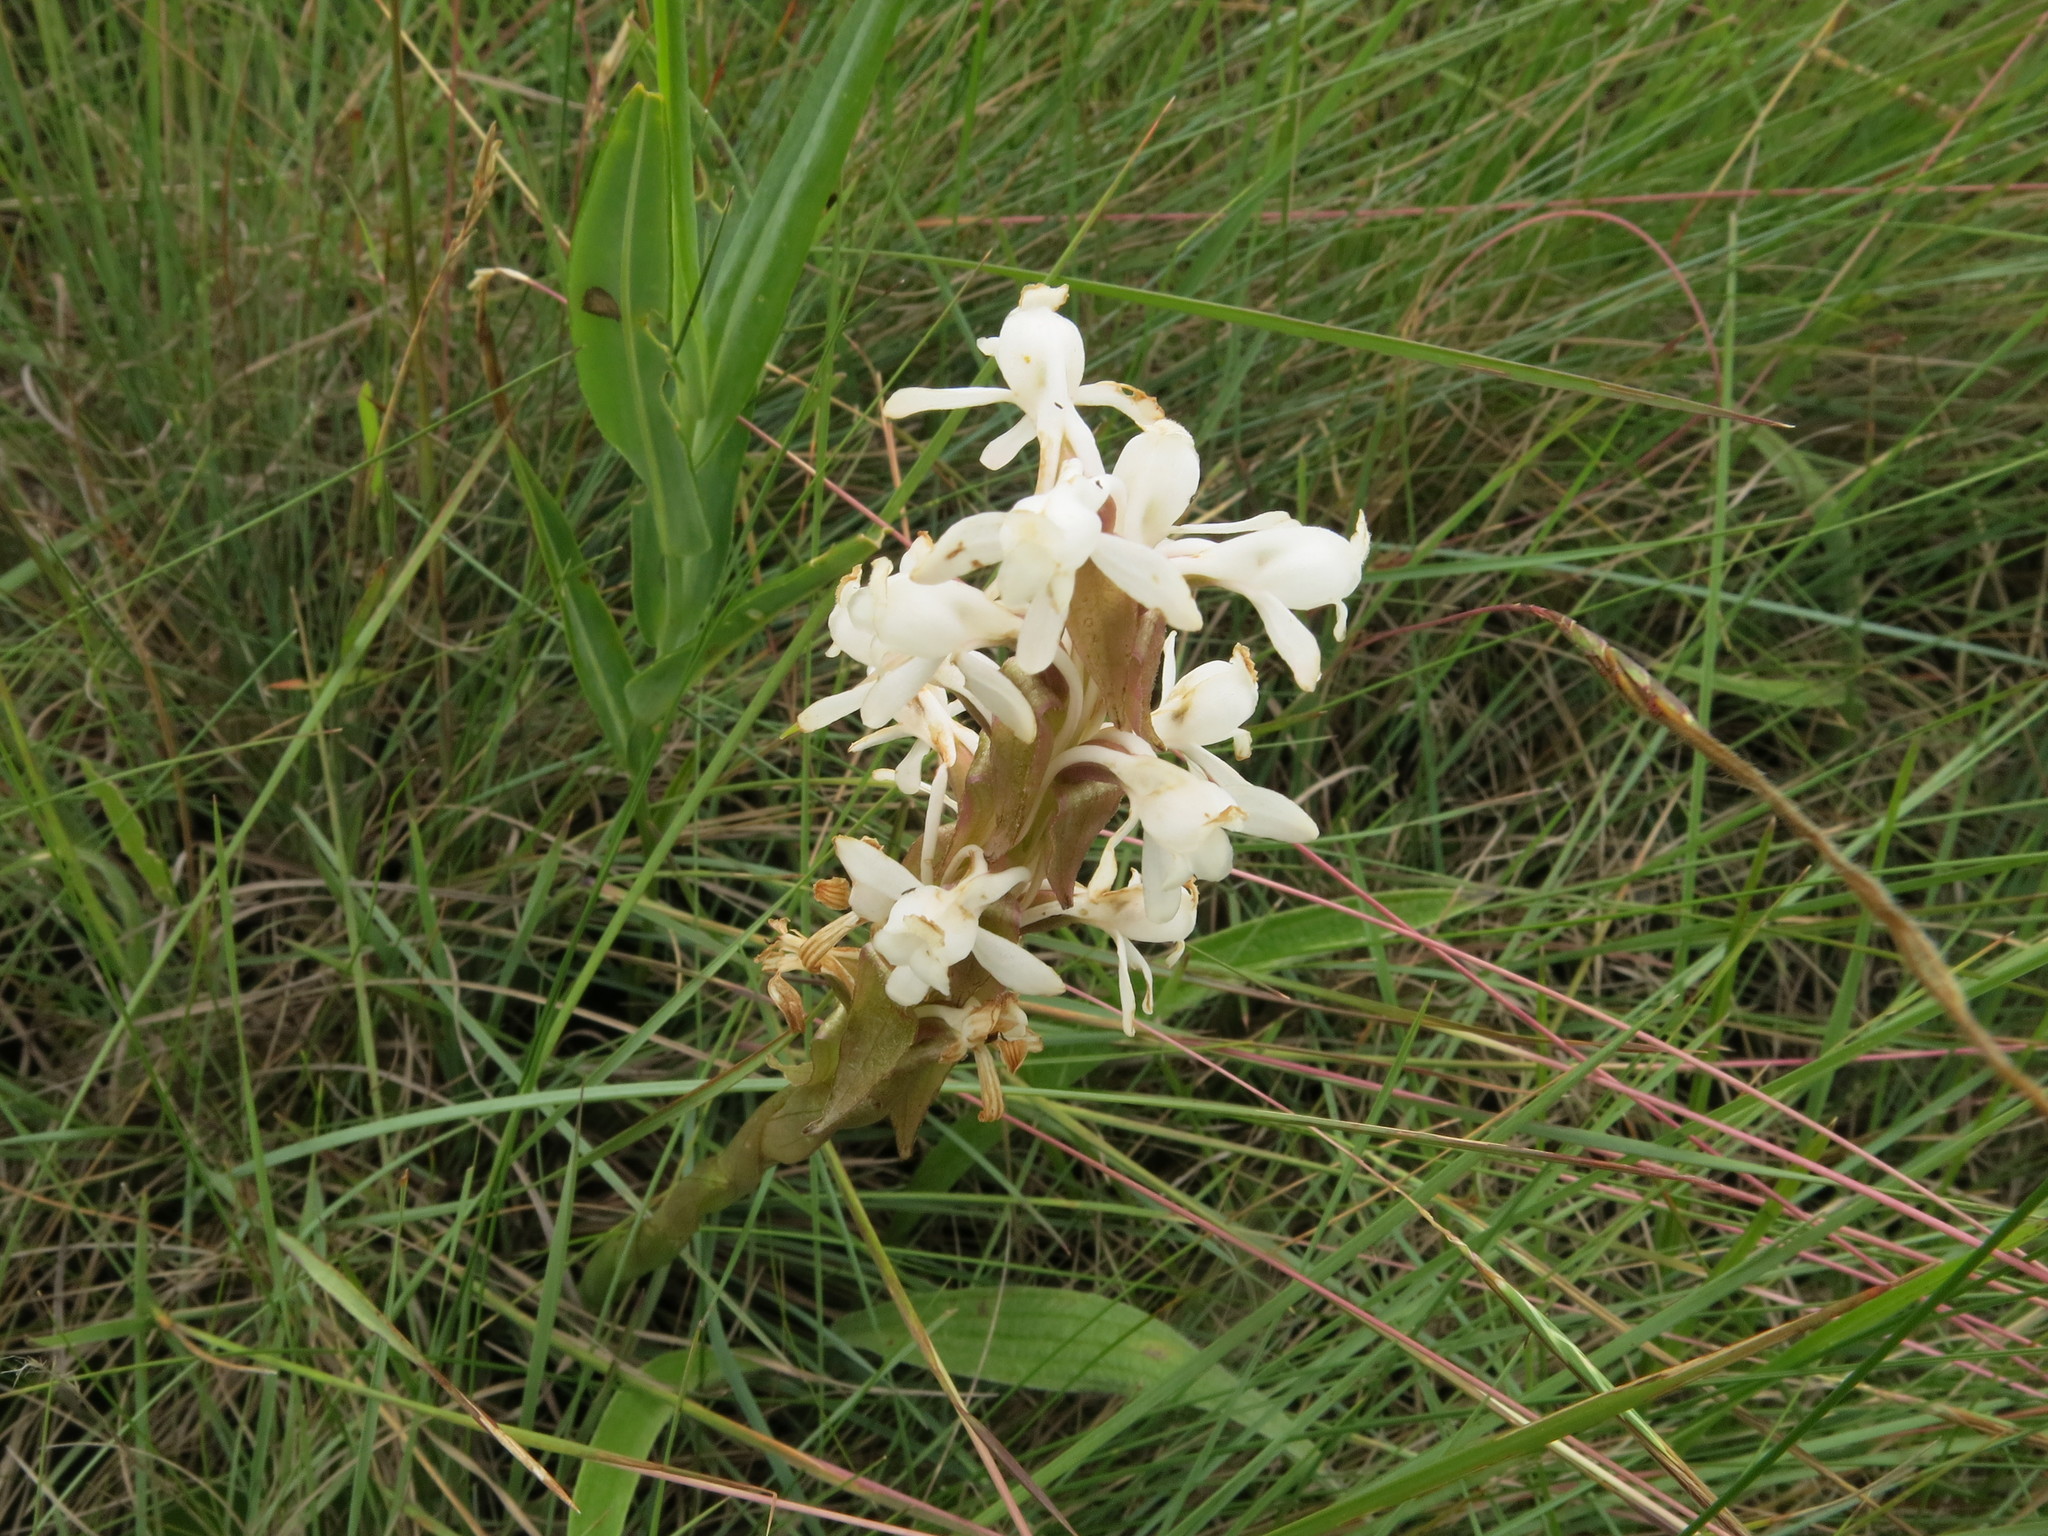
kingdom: Plantae
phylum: Tracheophyta
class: Liliopsida
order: Asparagales
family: Orchidaceae
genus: Satyrium
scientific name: Satyrium longicauda
